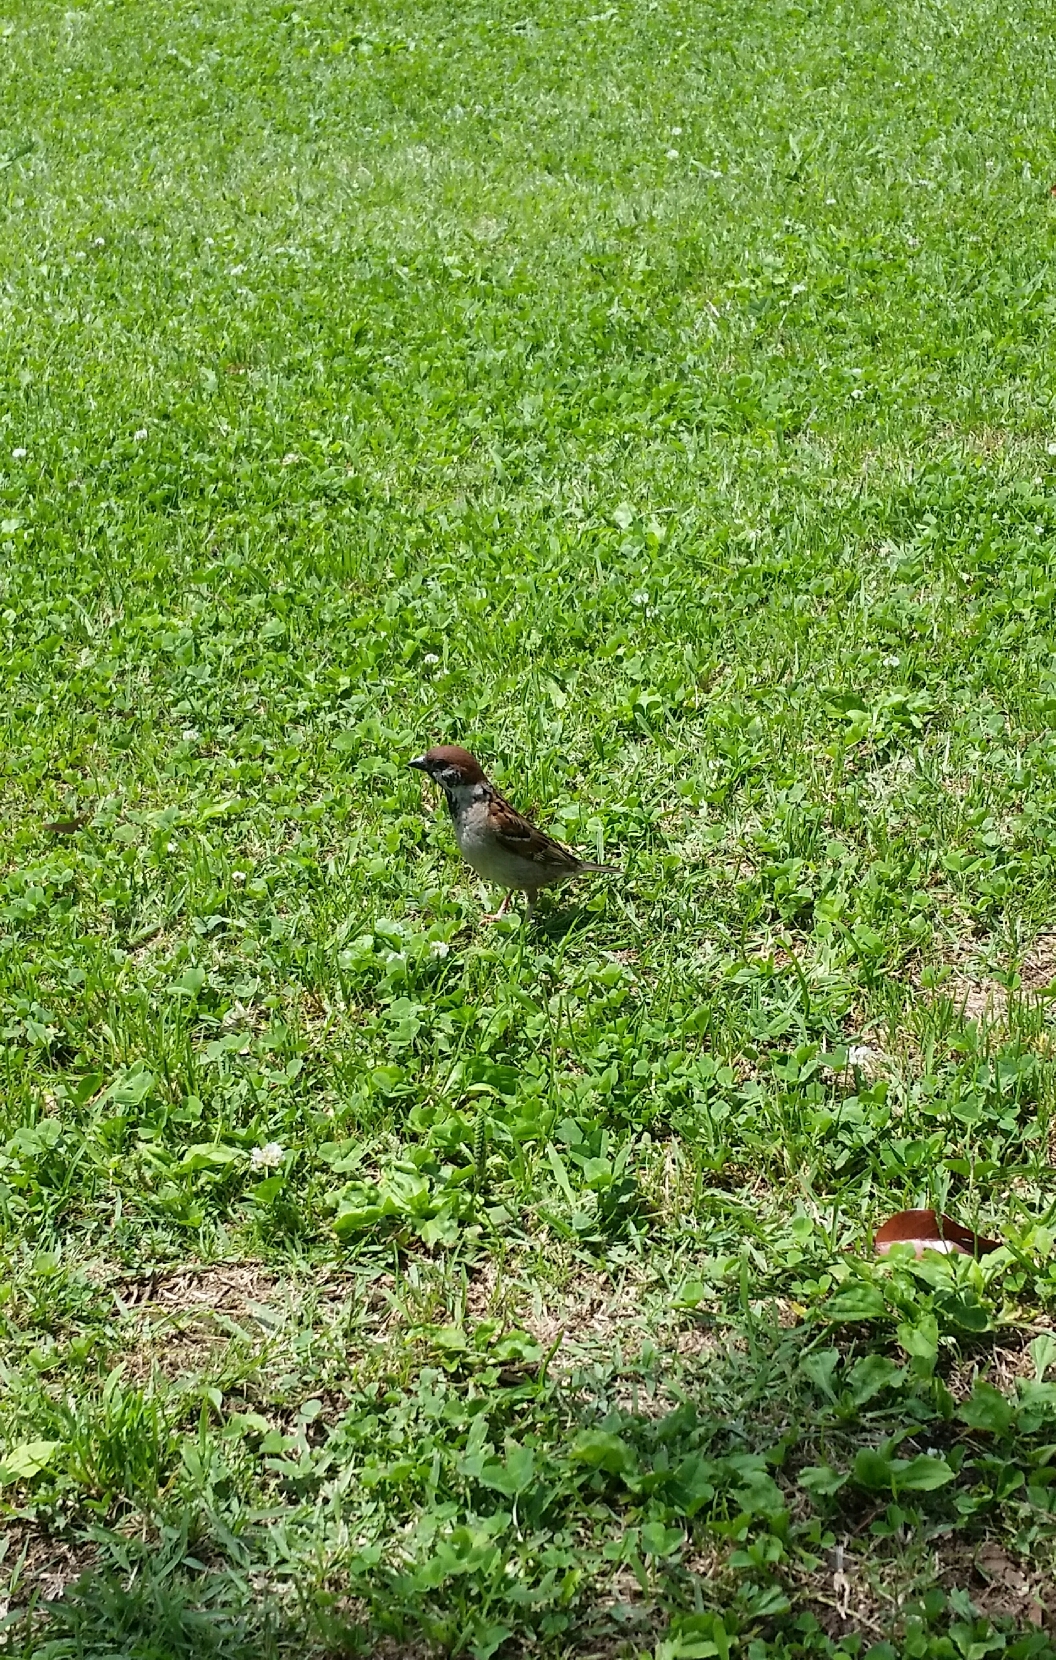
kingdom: Animalia
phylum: Chordata
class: Aves
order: Passeriformes
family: Passeridae
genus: Passer
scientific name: Passer montanus
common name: Eurasian tree sparrow
